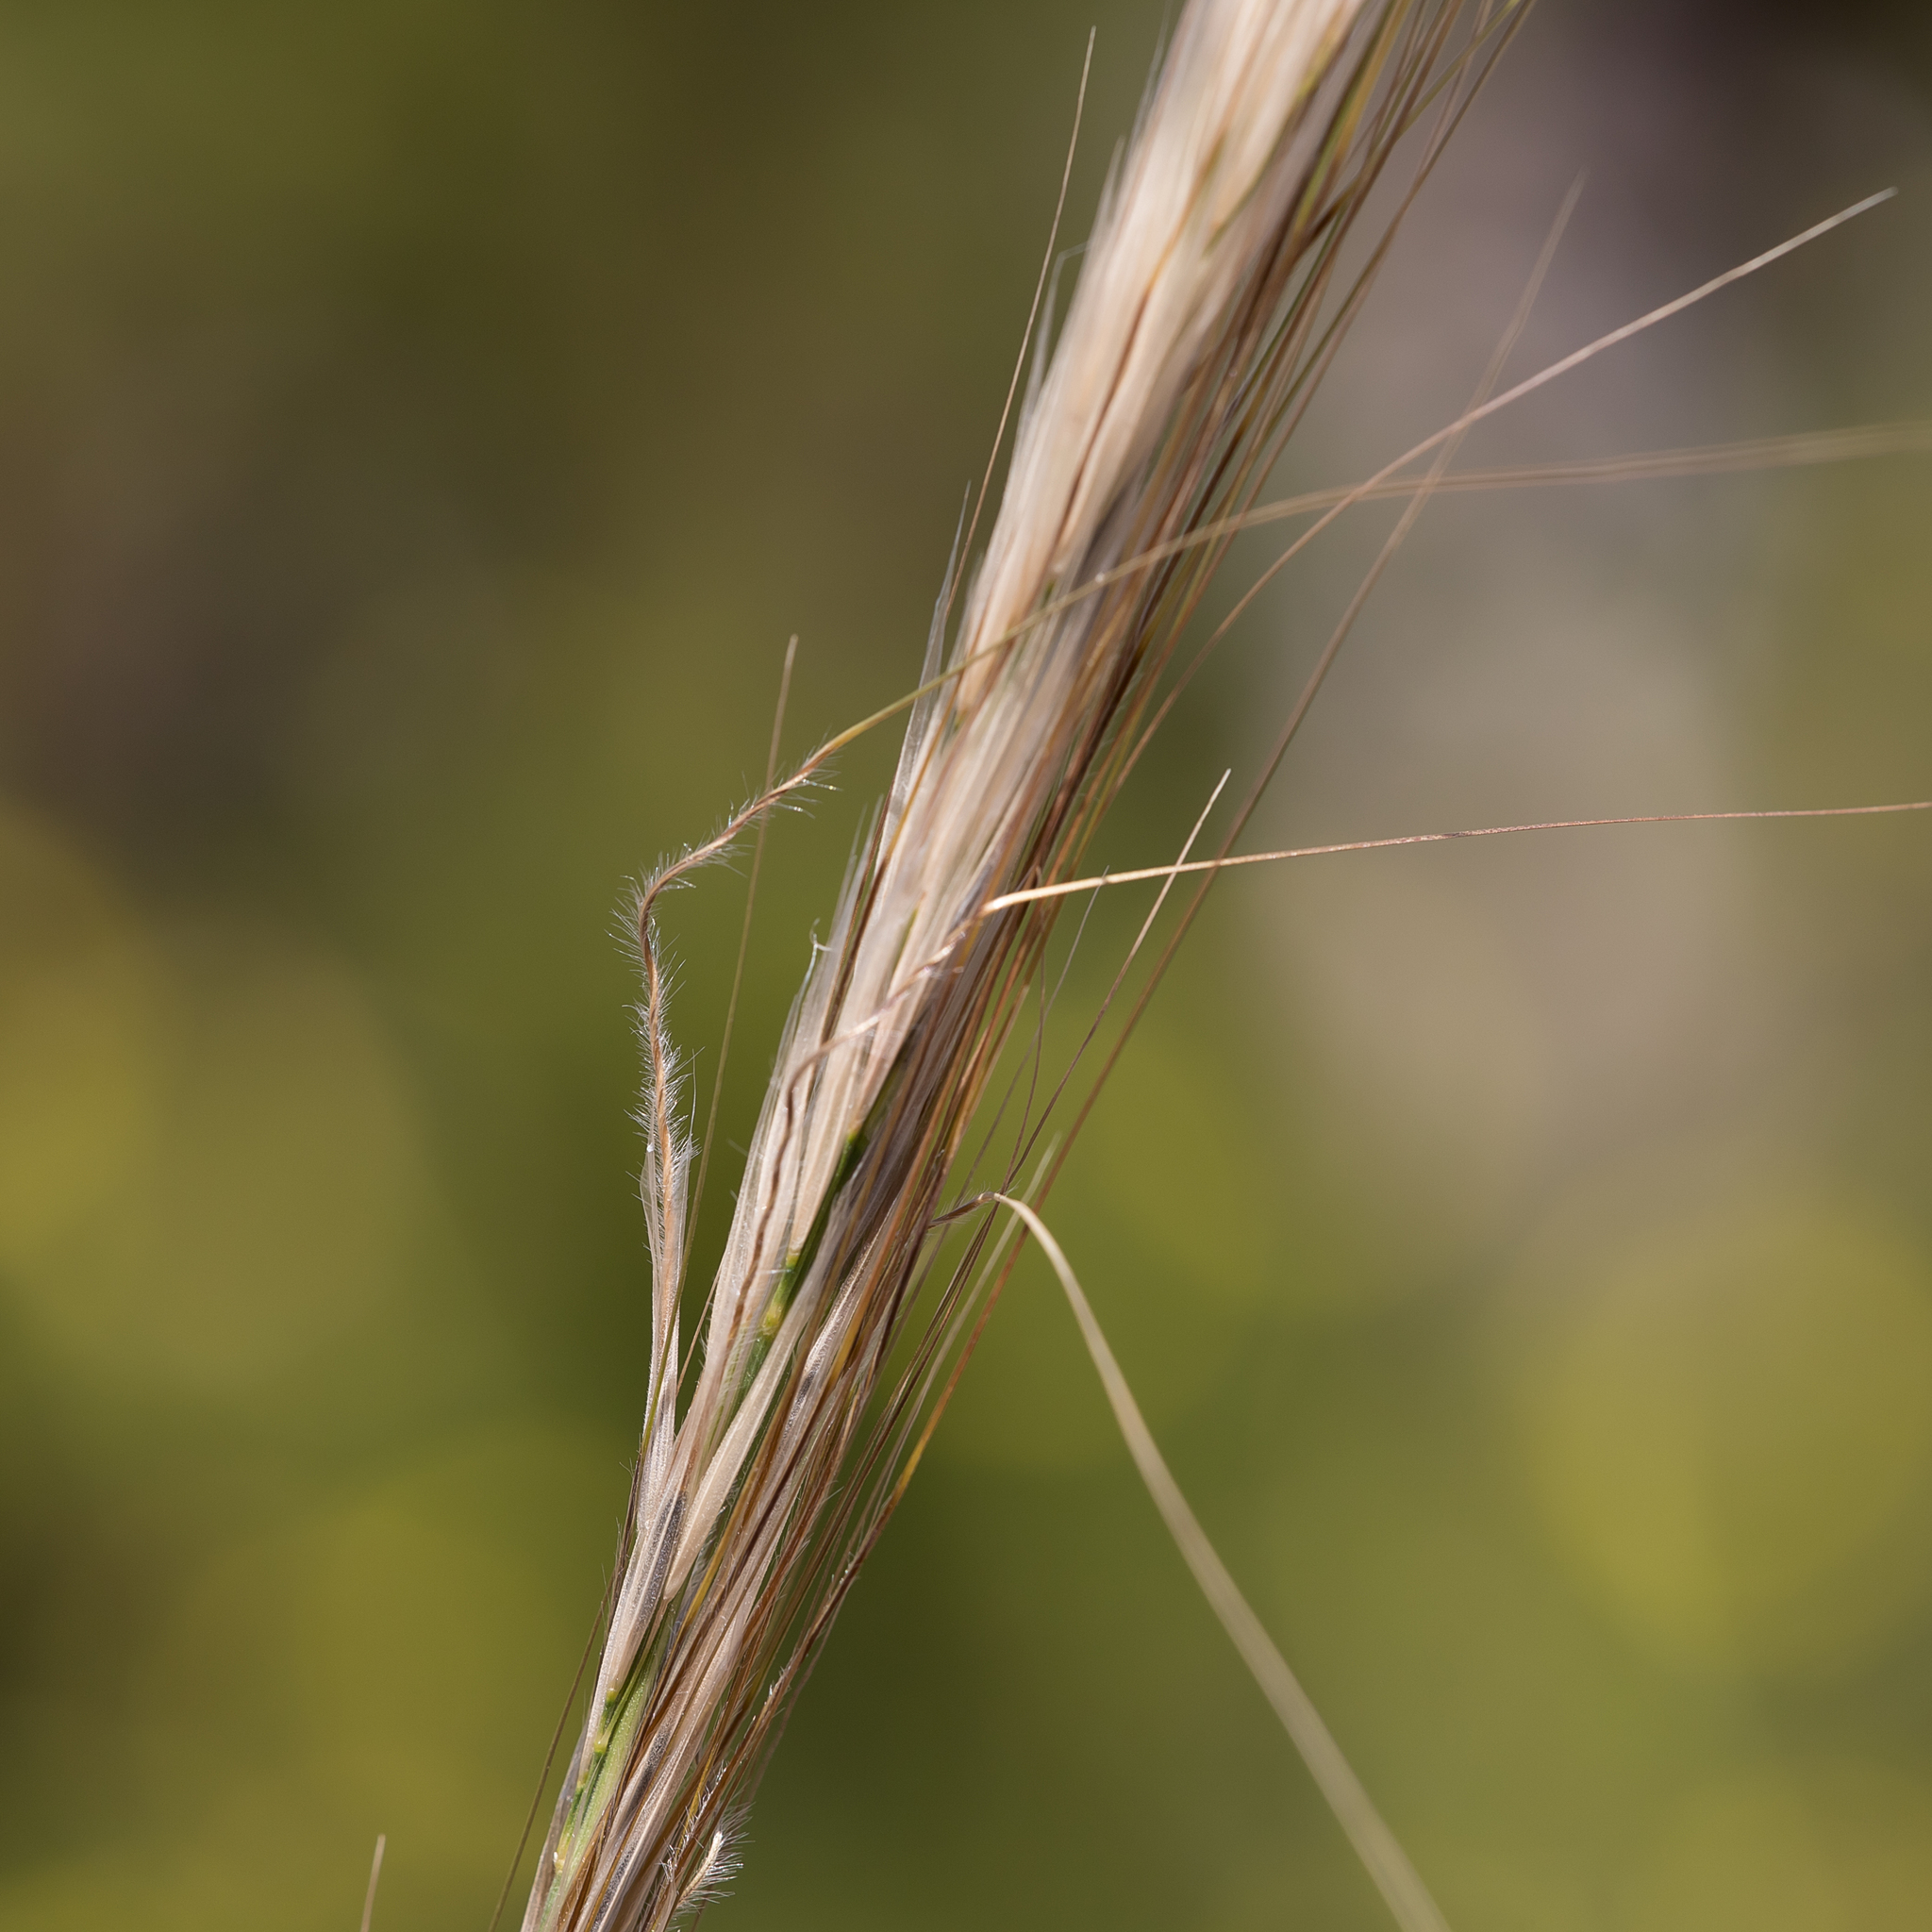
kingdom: Plantae
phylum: Tracheophyta
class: Liliopsida
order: Poales
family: Poaceae
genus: Austrostipa
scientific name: Austrostipa mollis
